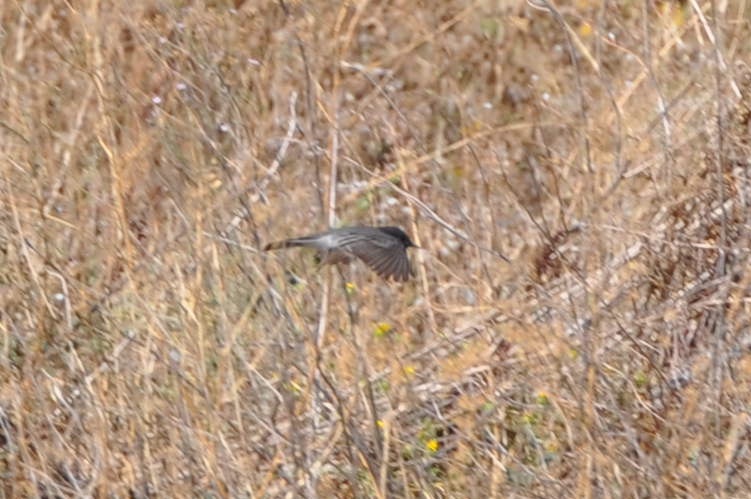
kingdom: Animalia
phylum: Chordata
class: Aves
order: Passeriformes
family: Tyrannidae
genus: Sayornis
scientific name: Sayornis nigricans
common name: Black phoebe
